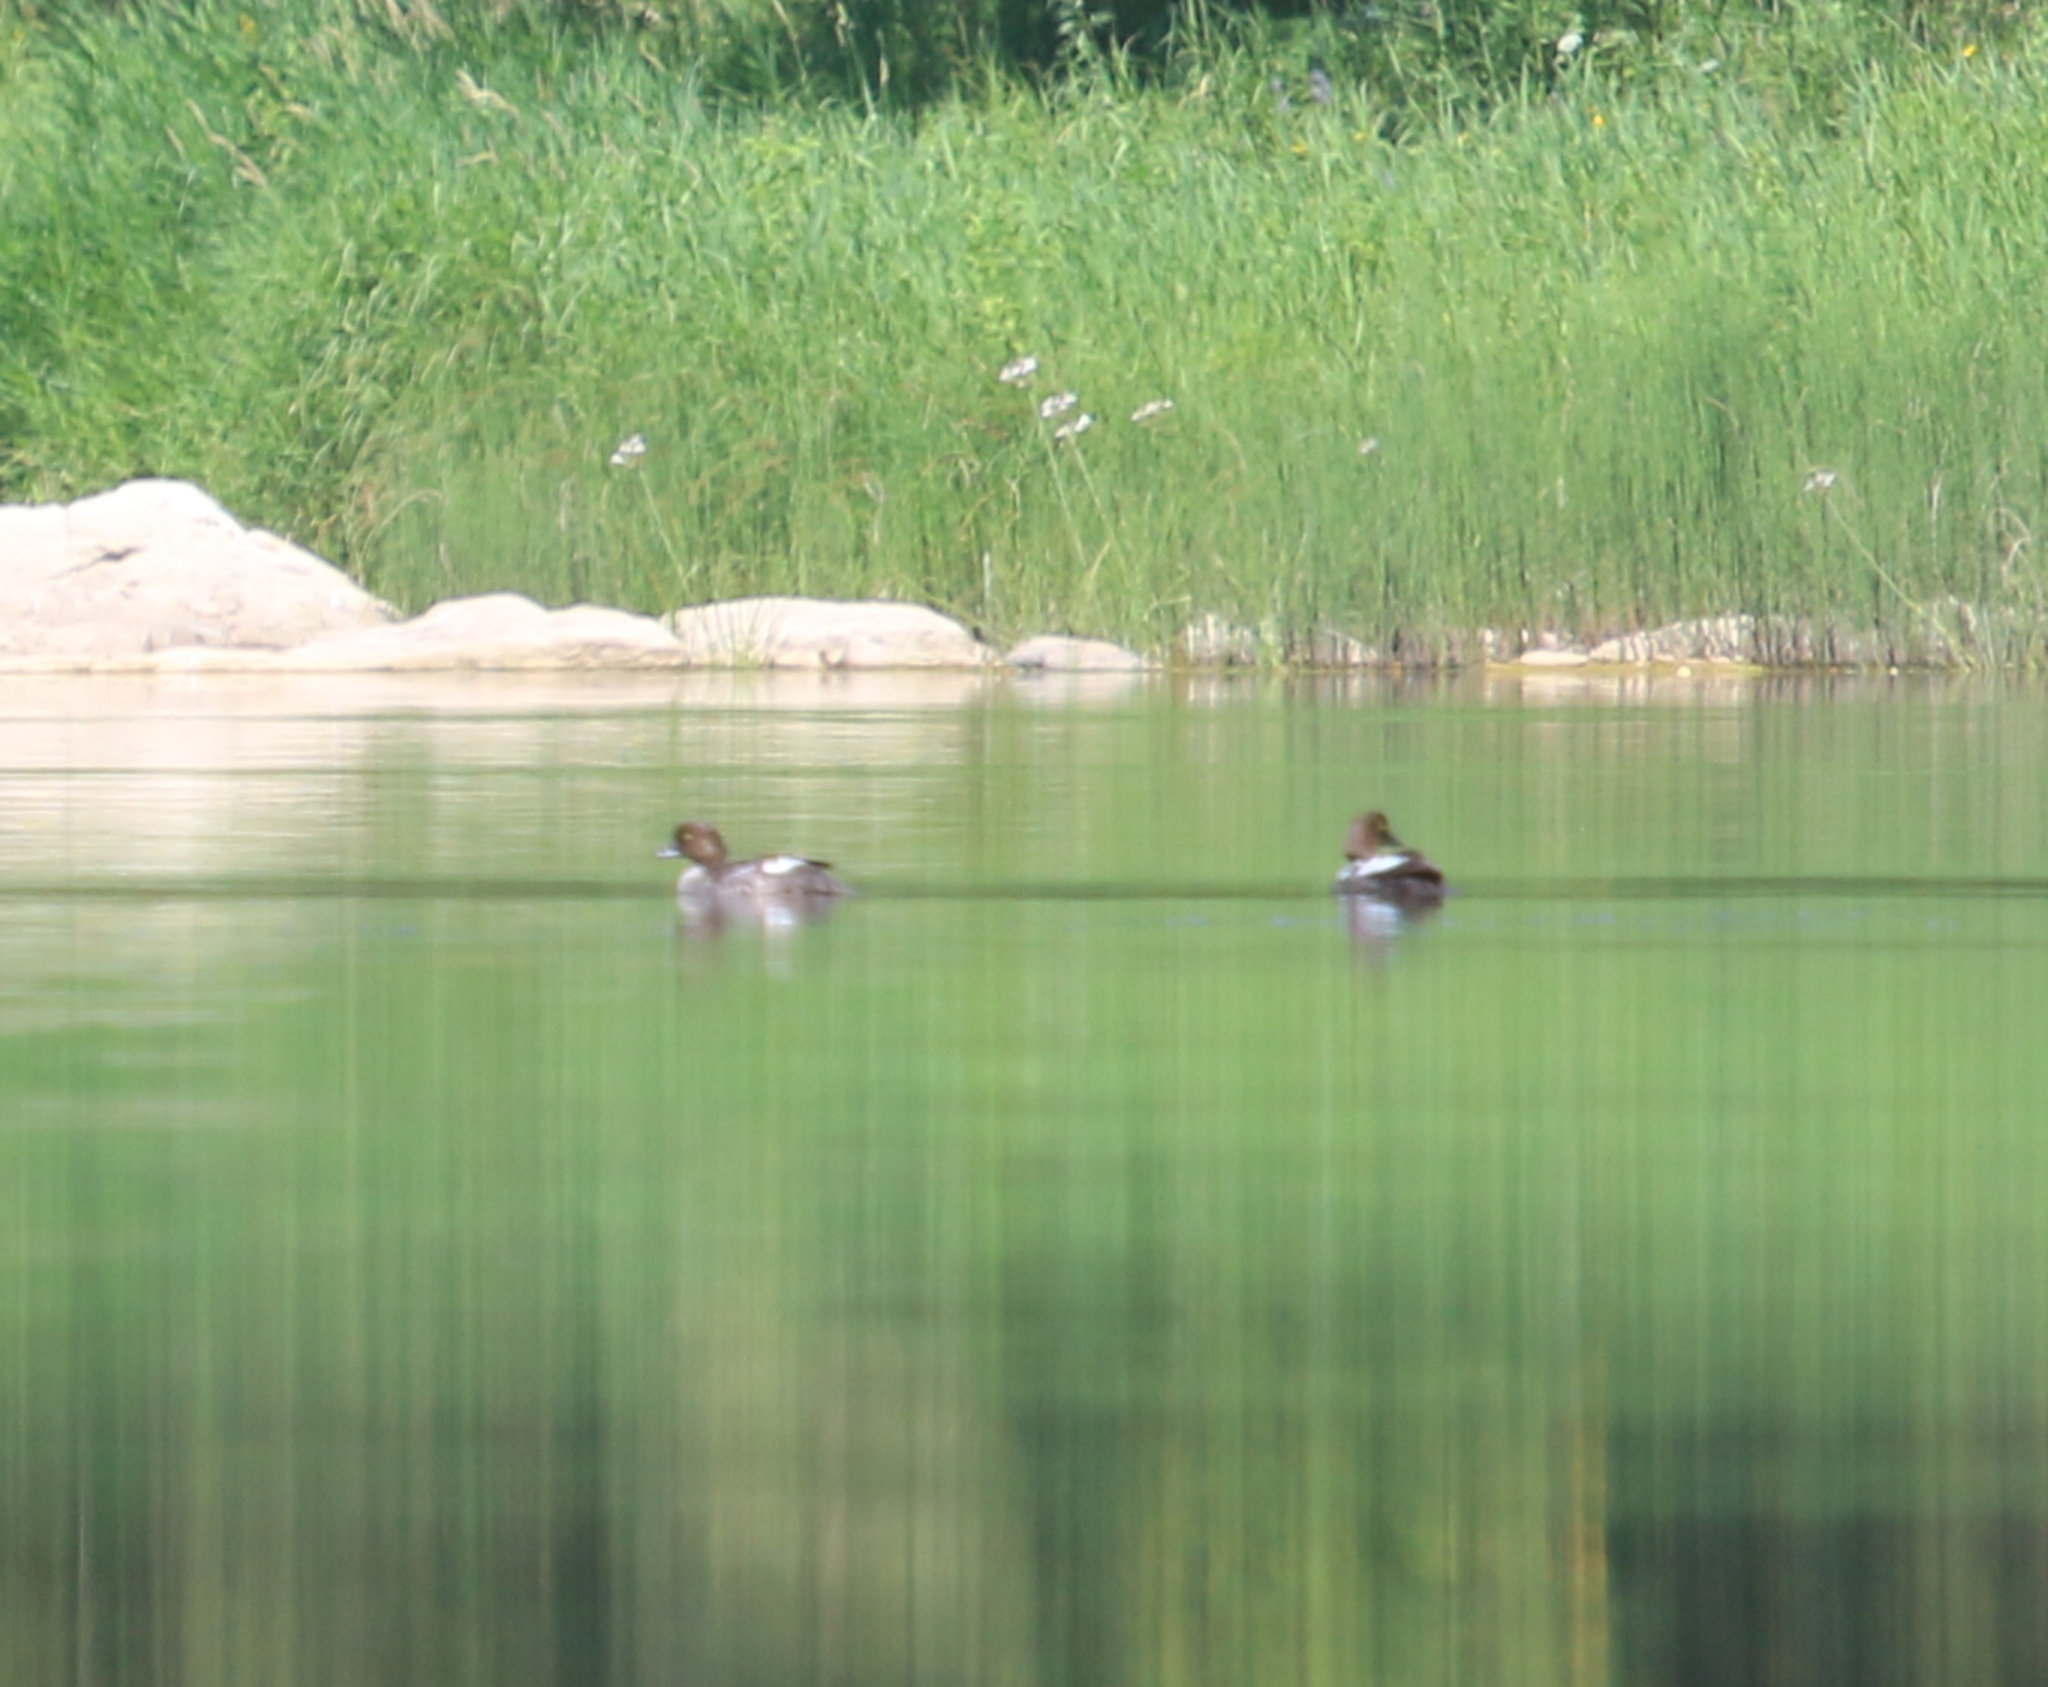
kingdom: Animalia
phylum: Chordata
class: Aves
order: Anseriformes
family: Anatidae
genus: Bucephala
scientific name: Bucephala clangula
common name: Common goldeneye
